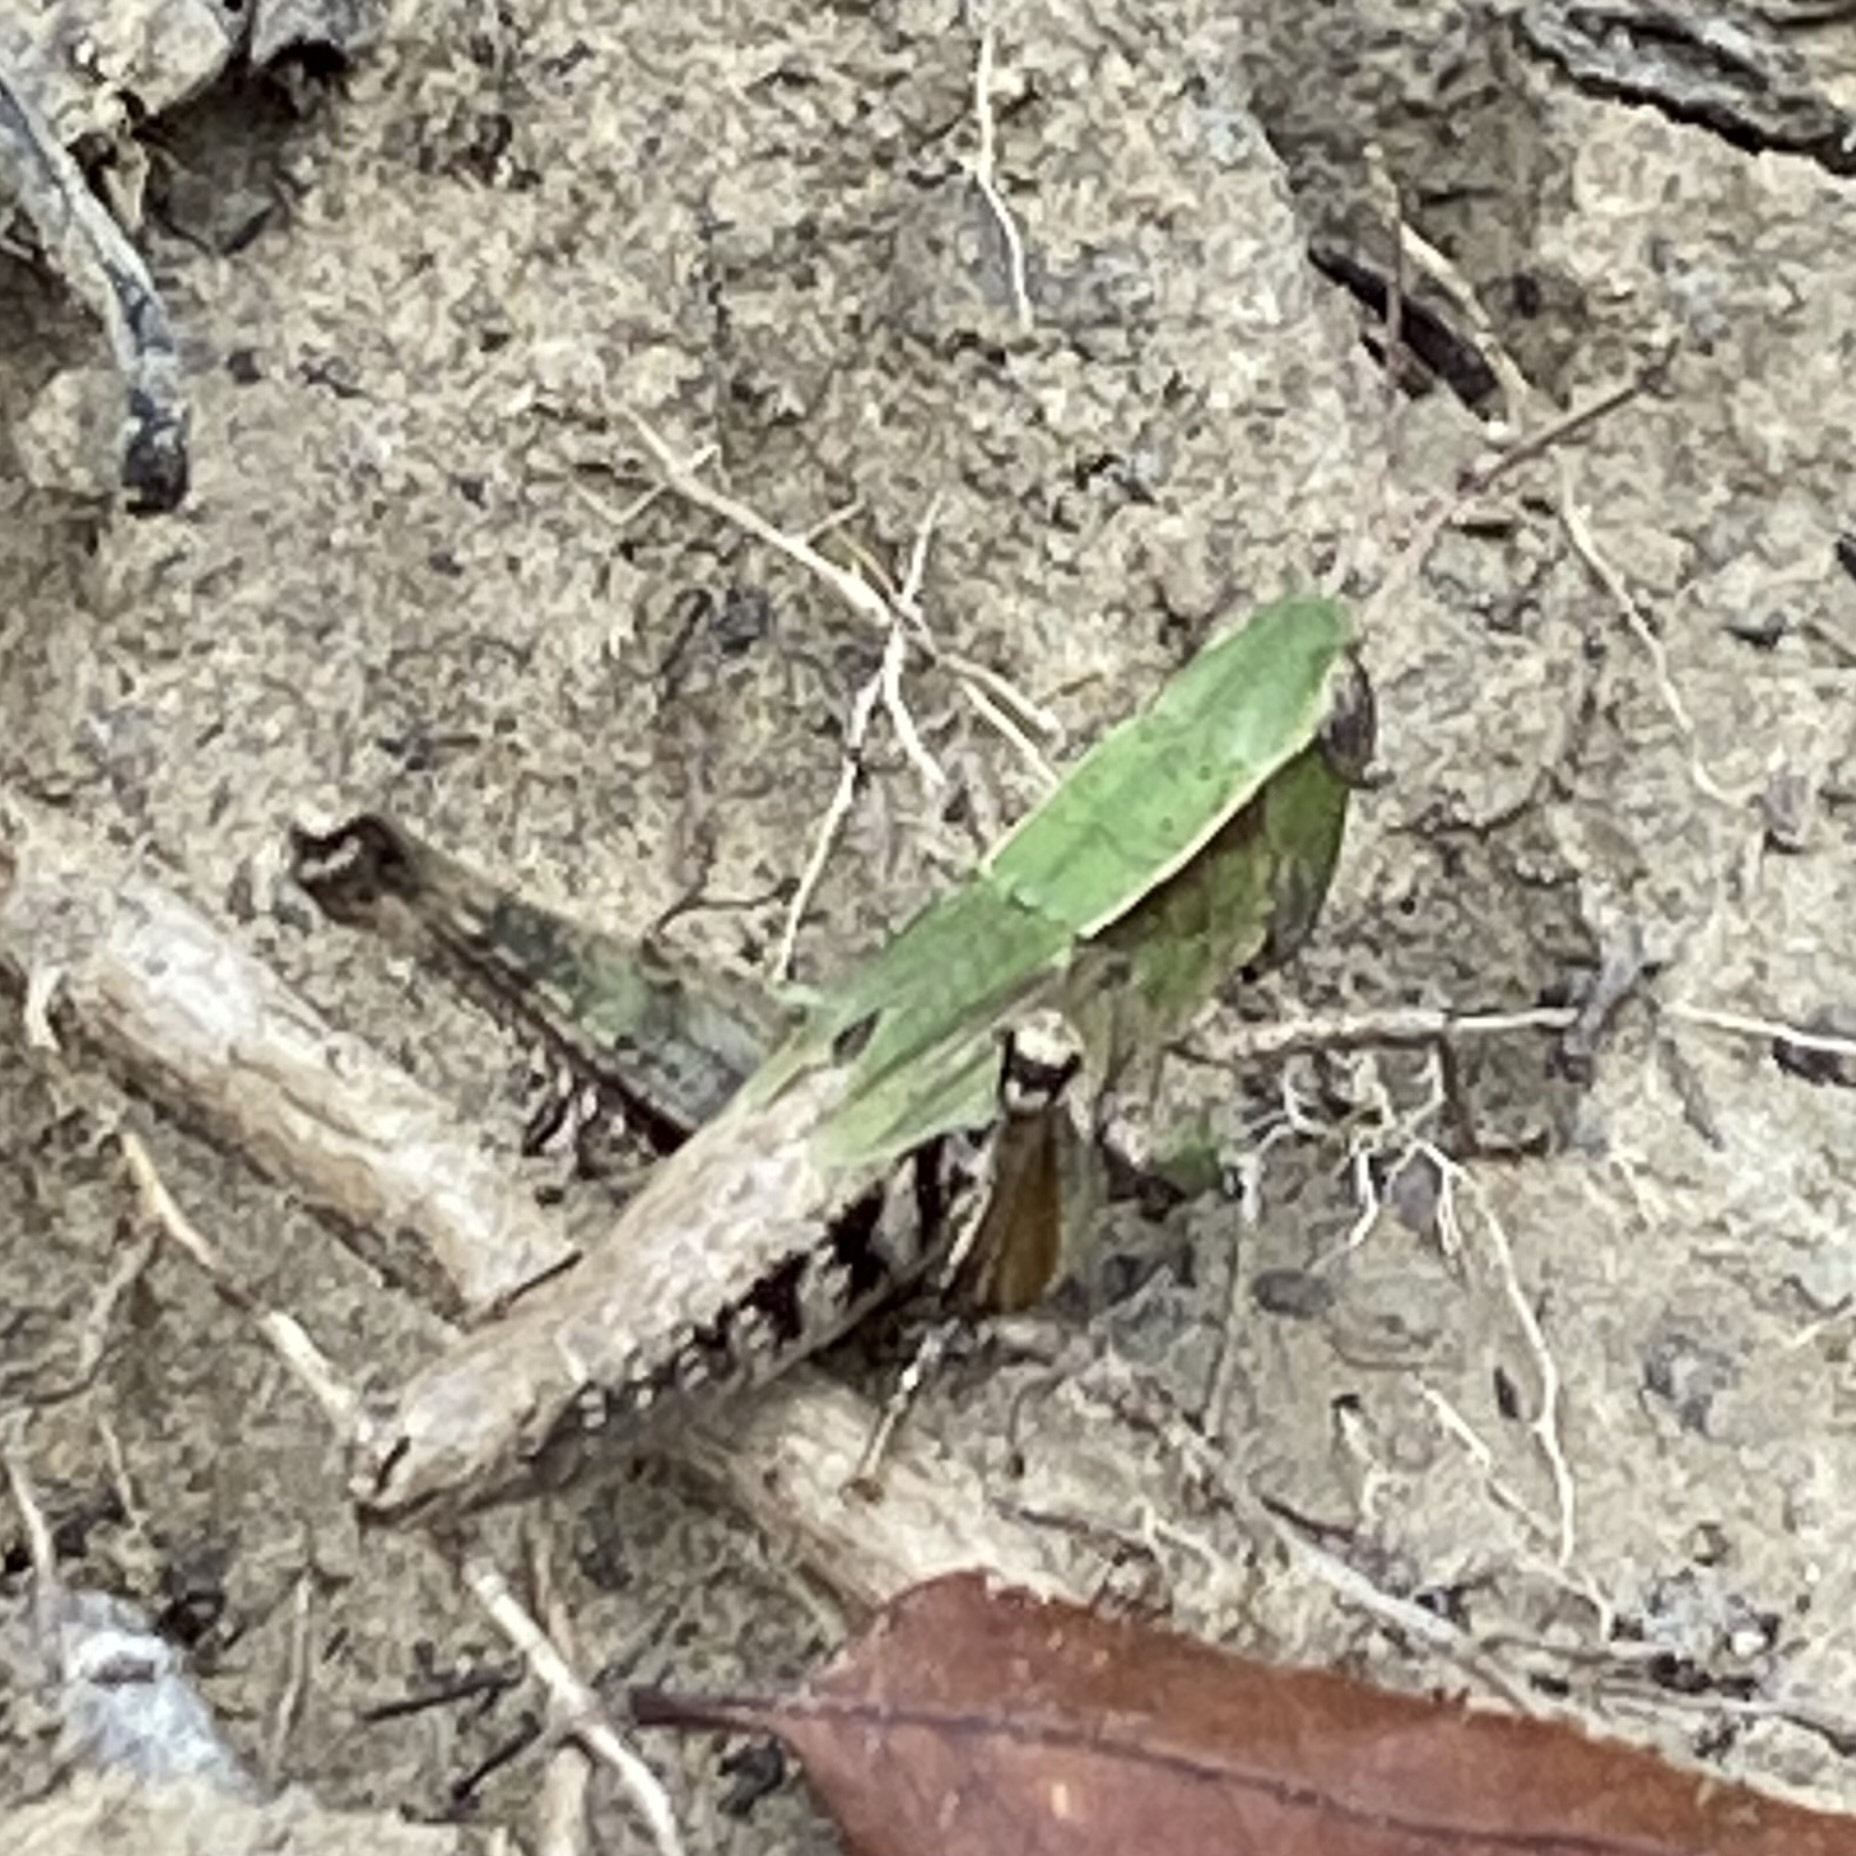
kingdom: Animalia
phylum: Arthropoda
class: Insecta
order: Orthoptera
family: Acrididae
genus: Dichromorpha
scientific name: Dichromorpha viridis
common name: Short-winged green grasshopper
